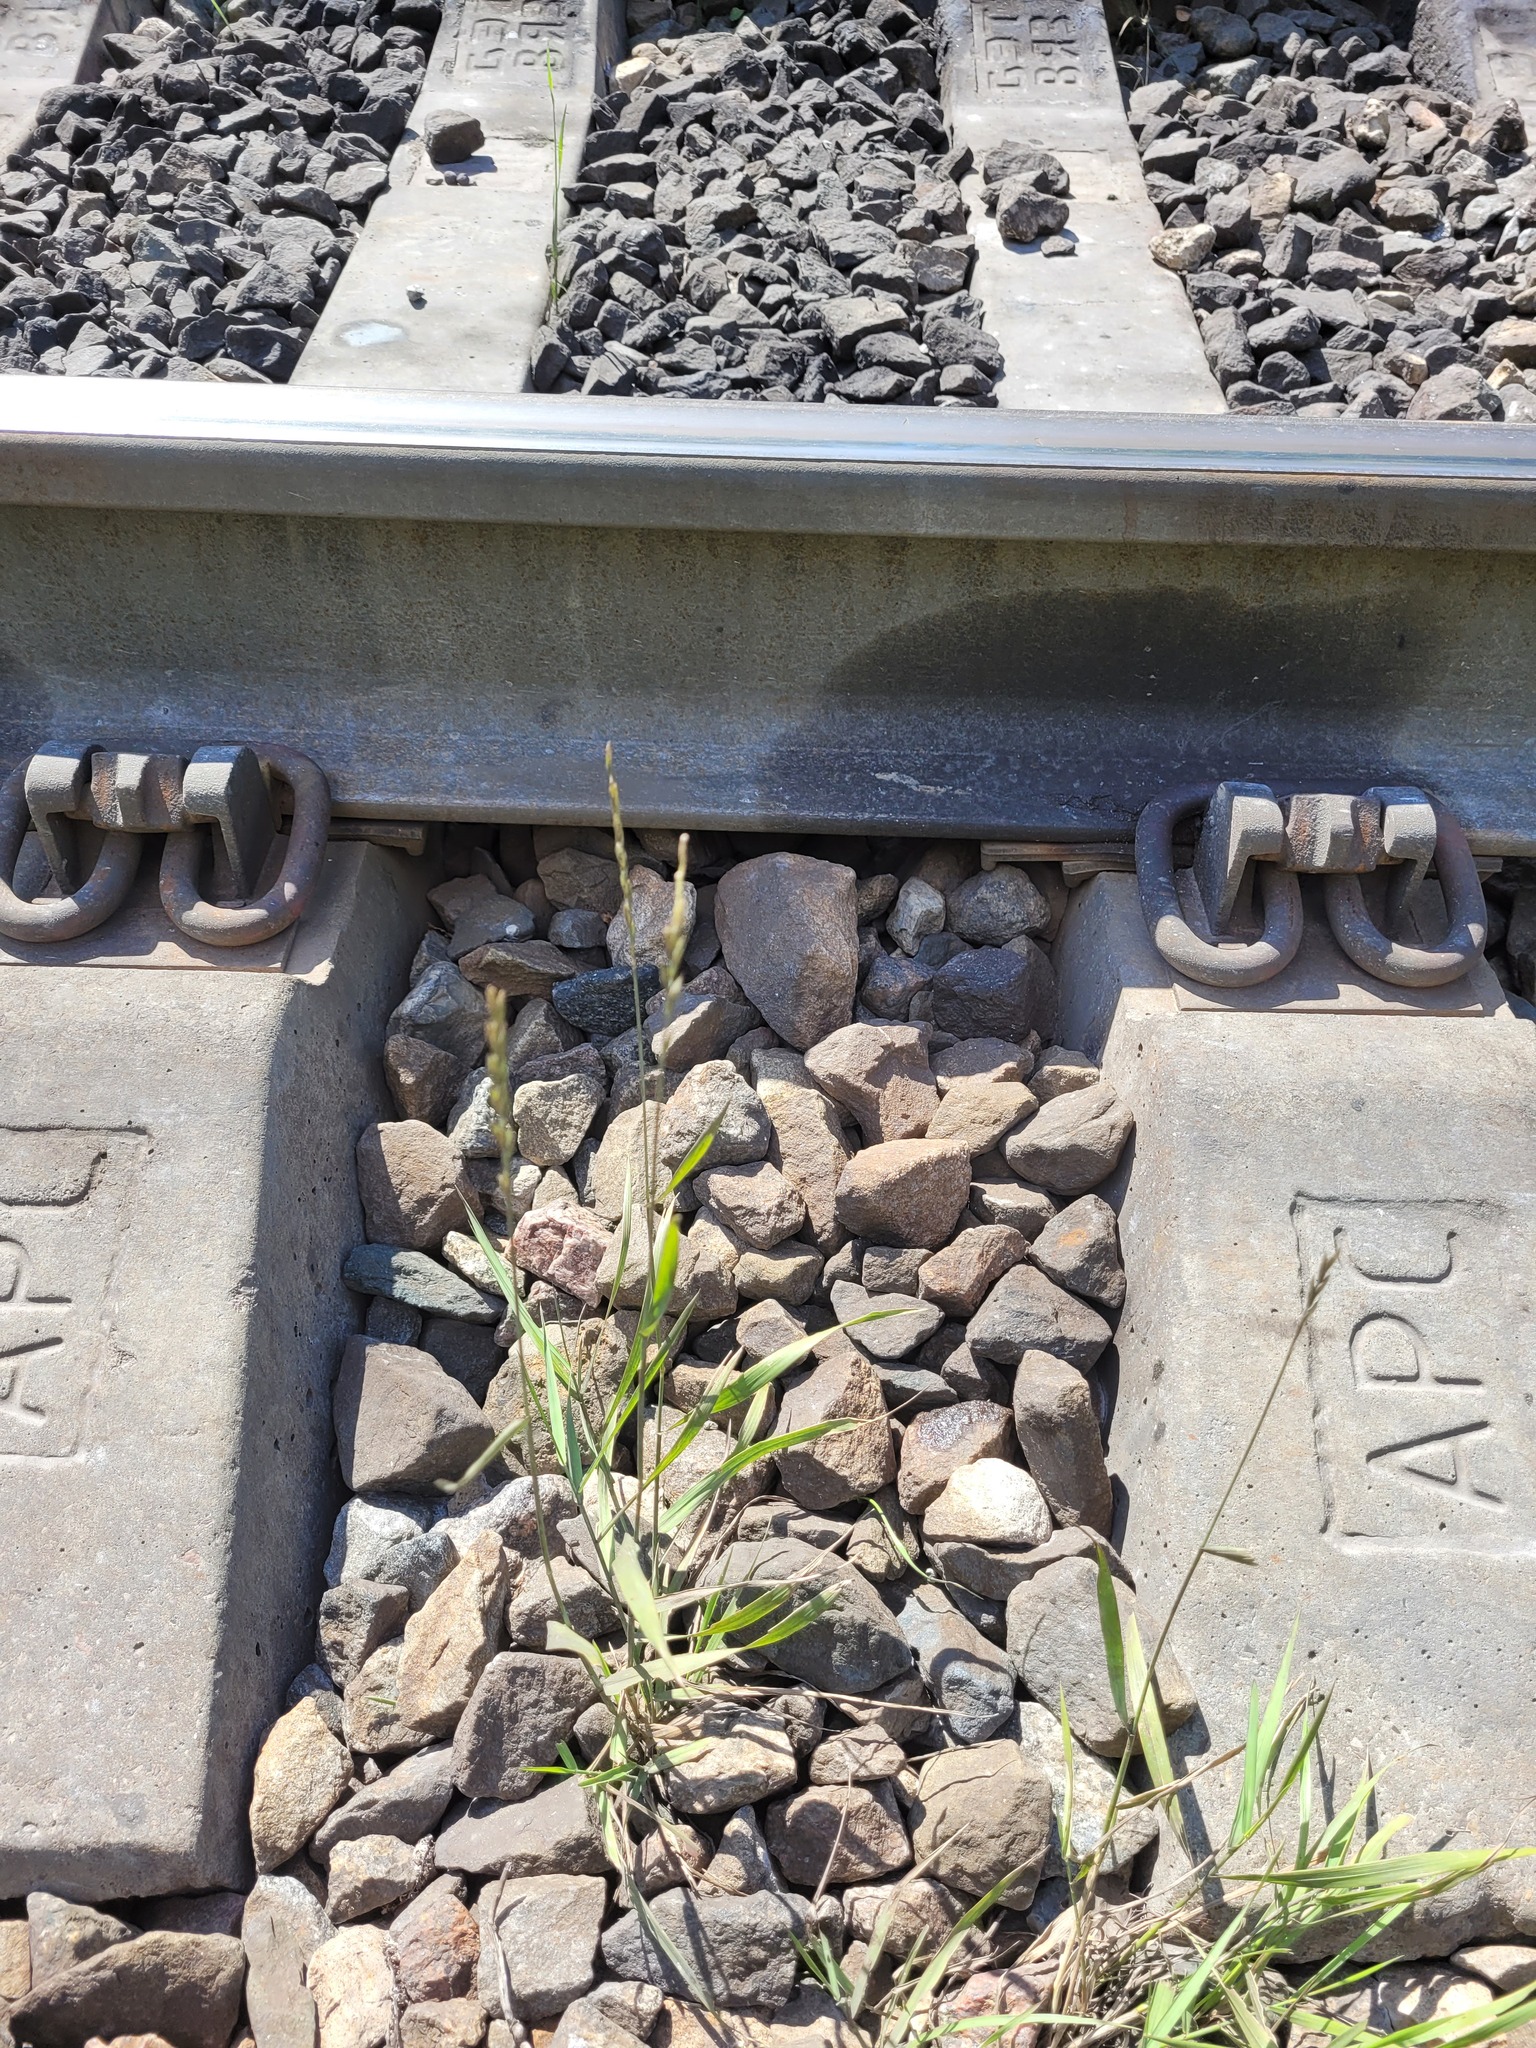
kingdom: Plantae
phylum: Tracheophyta
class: Liliopsida
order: Poales
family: Poaceae
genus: Elymus
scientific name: Elymus repens
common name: Quackgrass
